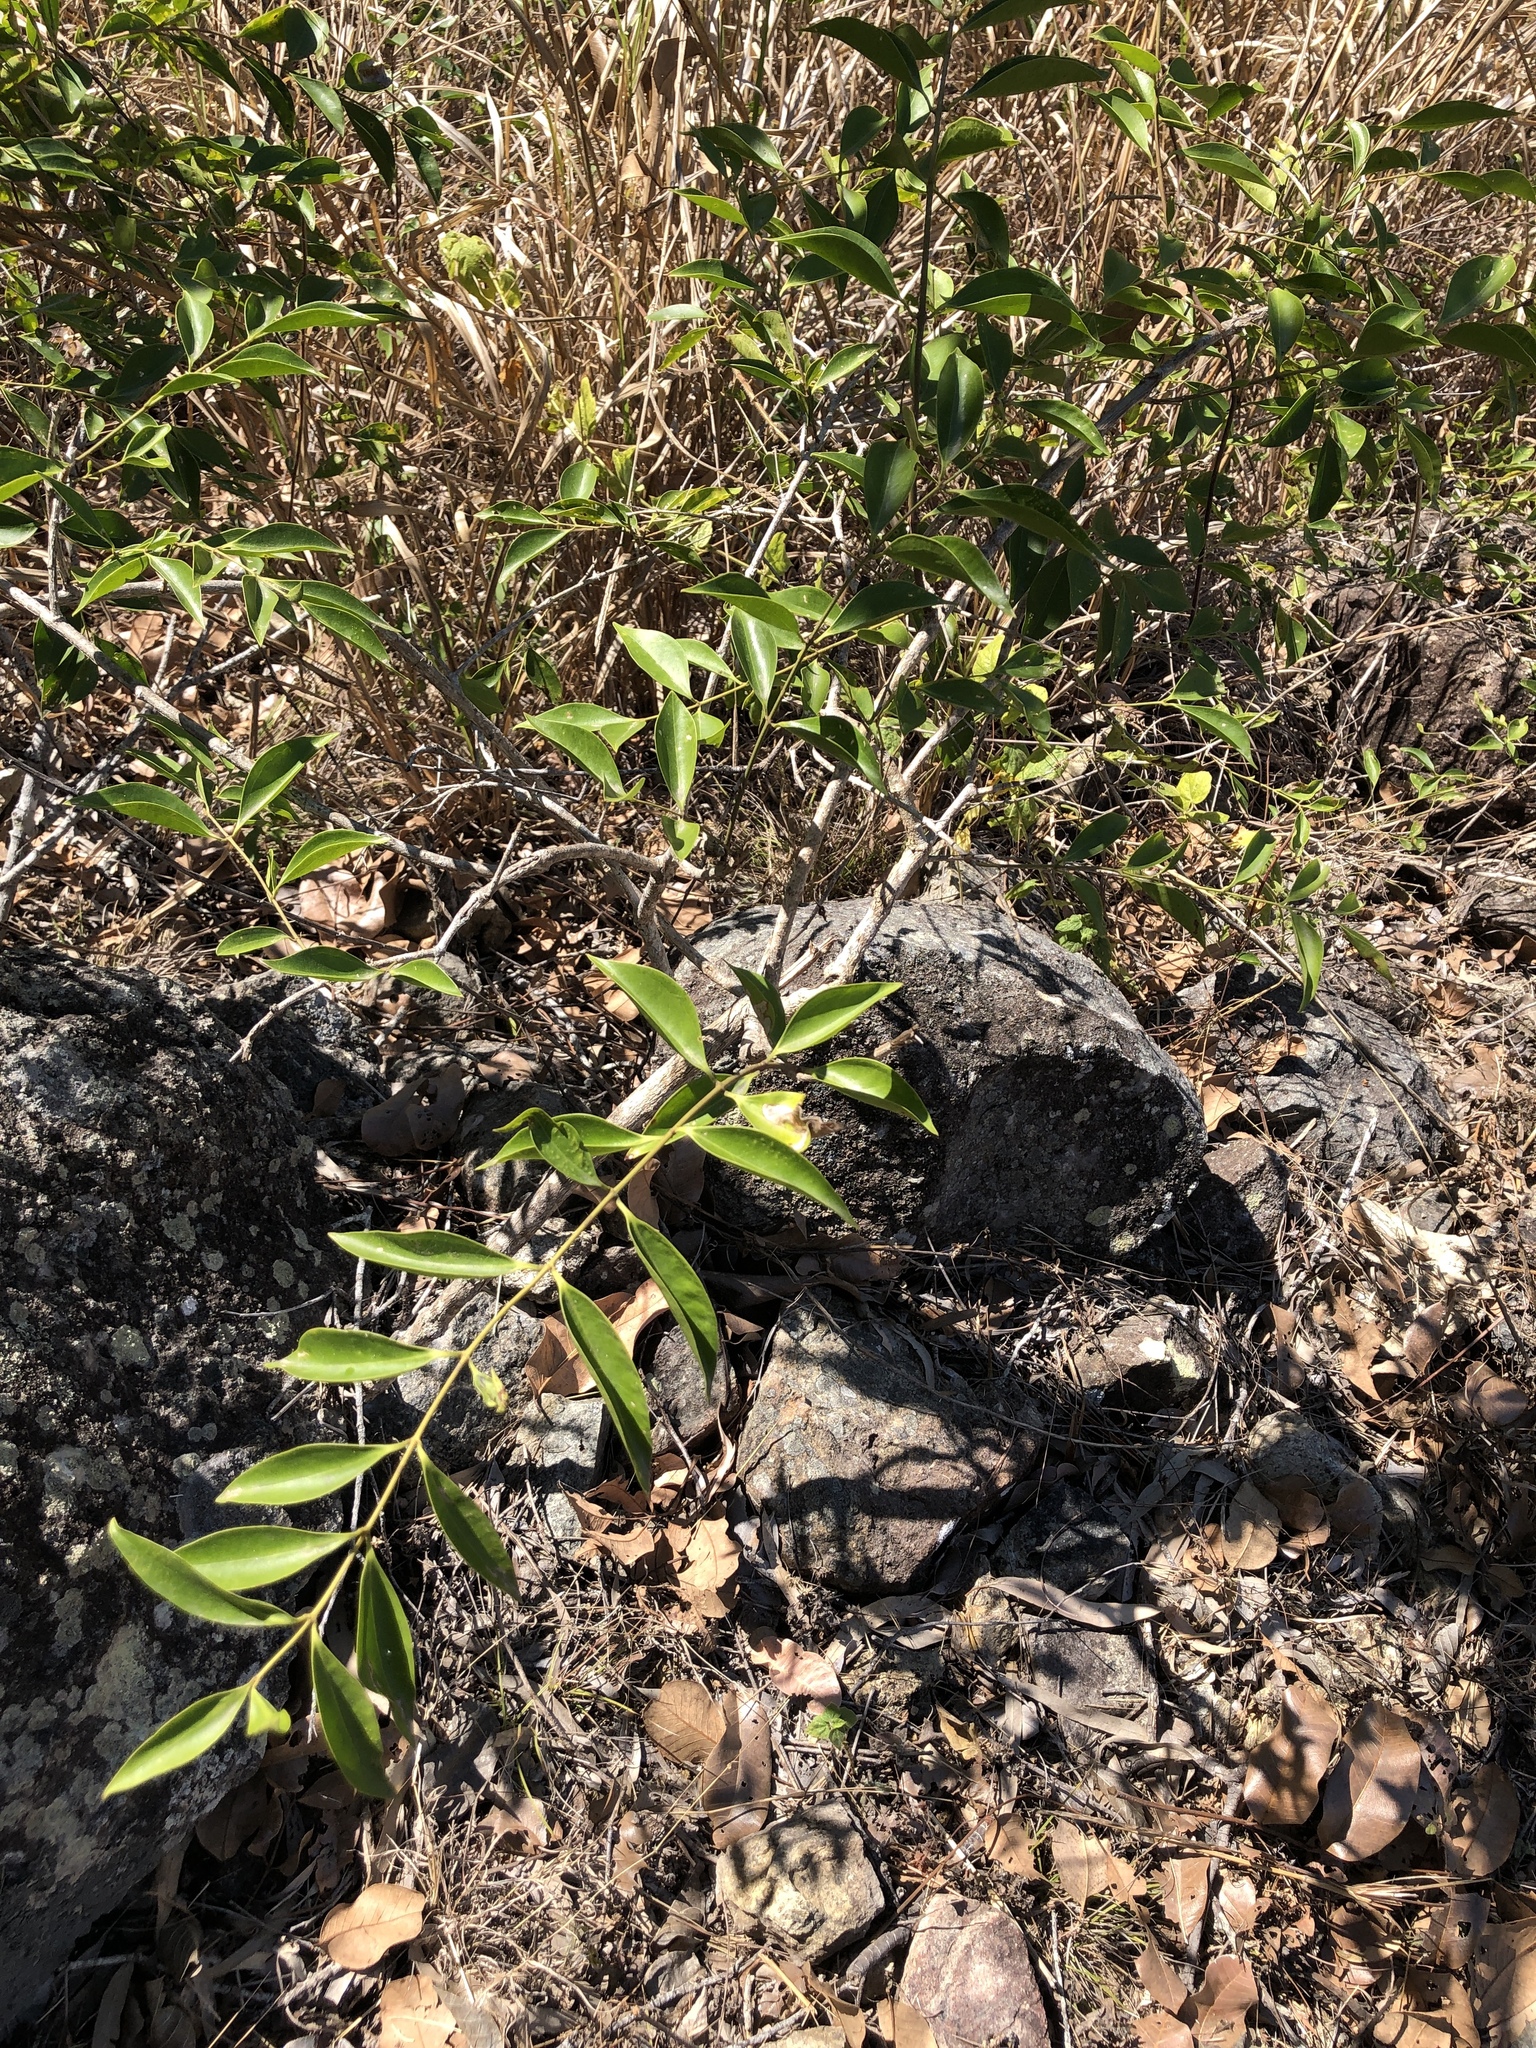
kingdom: Plantae
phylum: Tracheophyta
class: Magnoliopsida
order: Lamiales
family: Oleaceae
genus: Jasminum
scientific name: Jasminum simplicifolium
